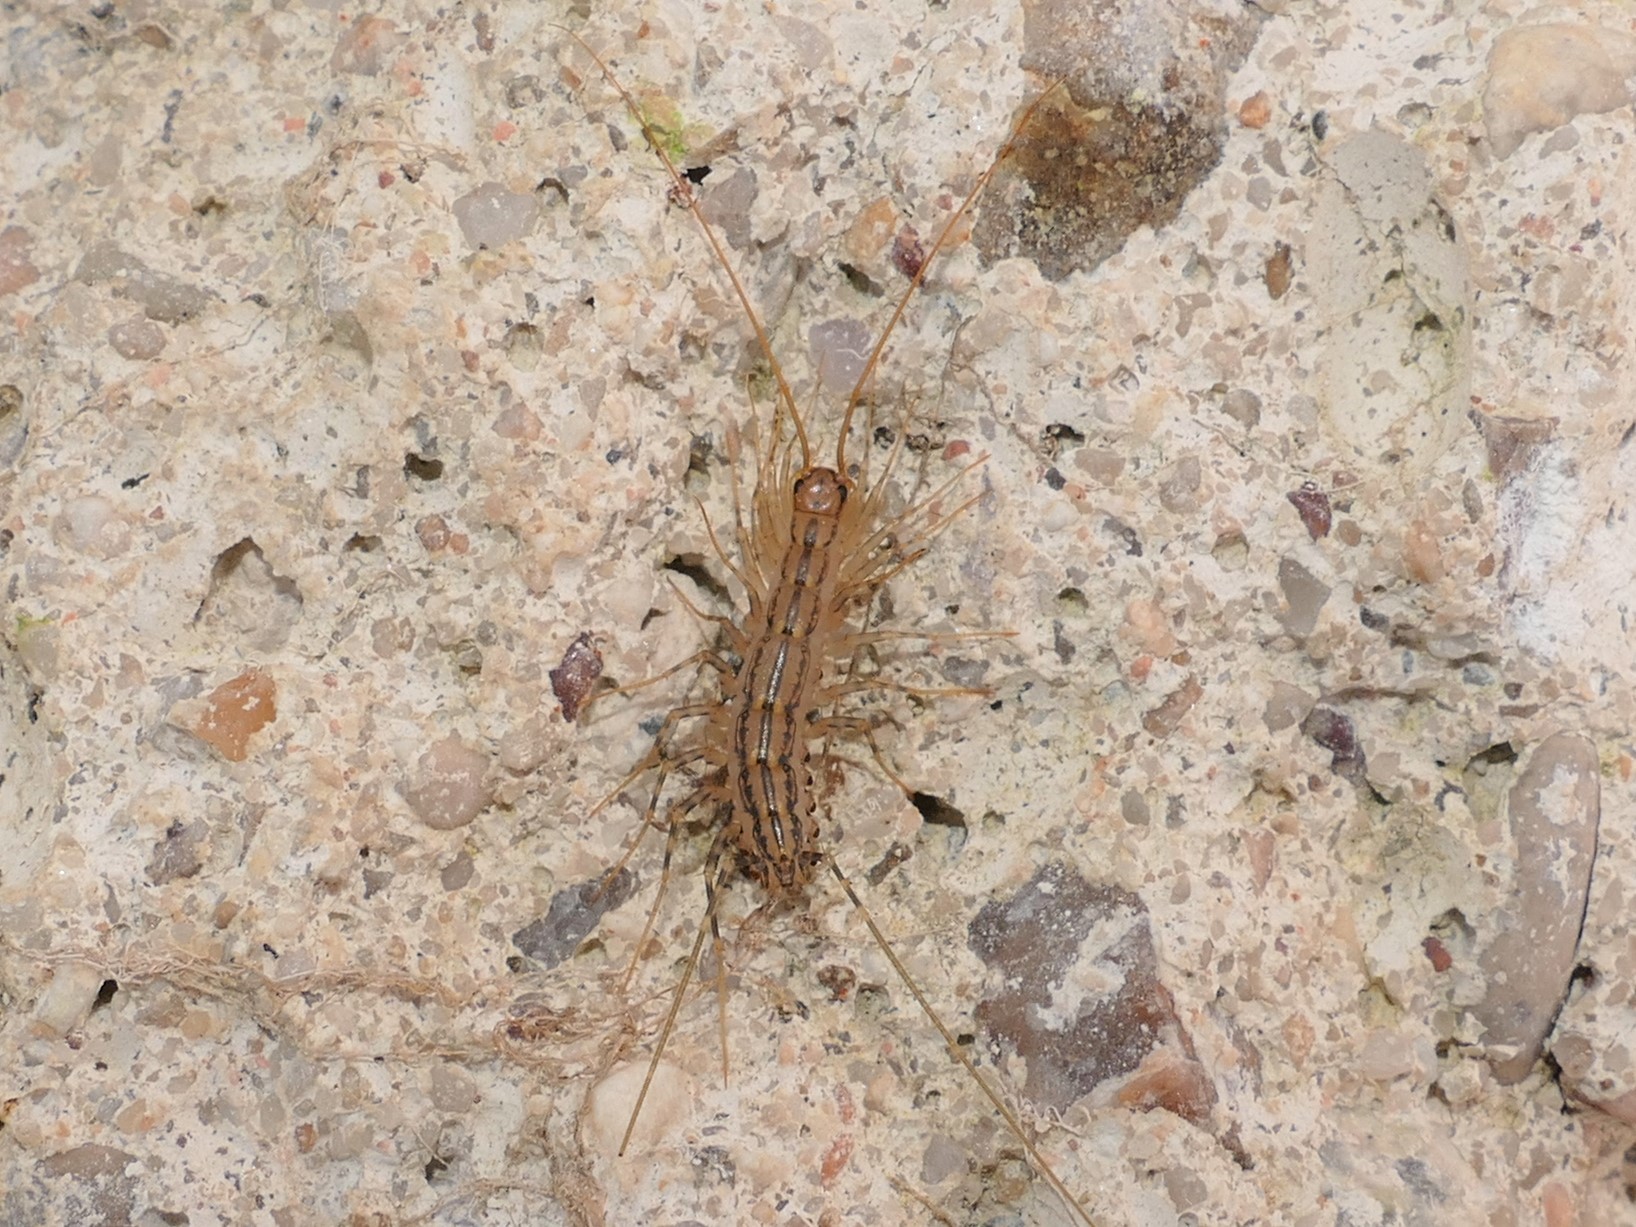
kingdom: Animalia
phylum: Arthropoda
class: Chilopoda
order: Scutigeromorpha
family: Scutigeridae
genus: Scutigera
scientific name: Scutigera coleoptrata
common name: House centipede
